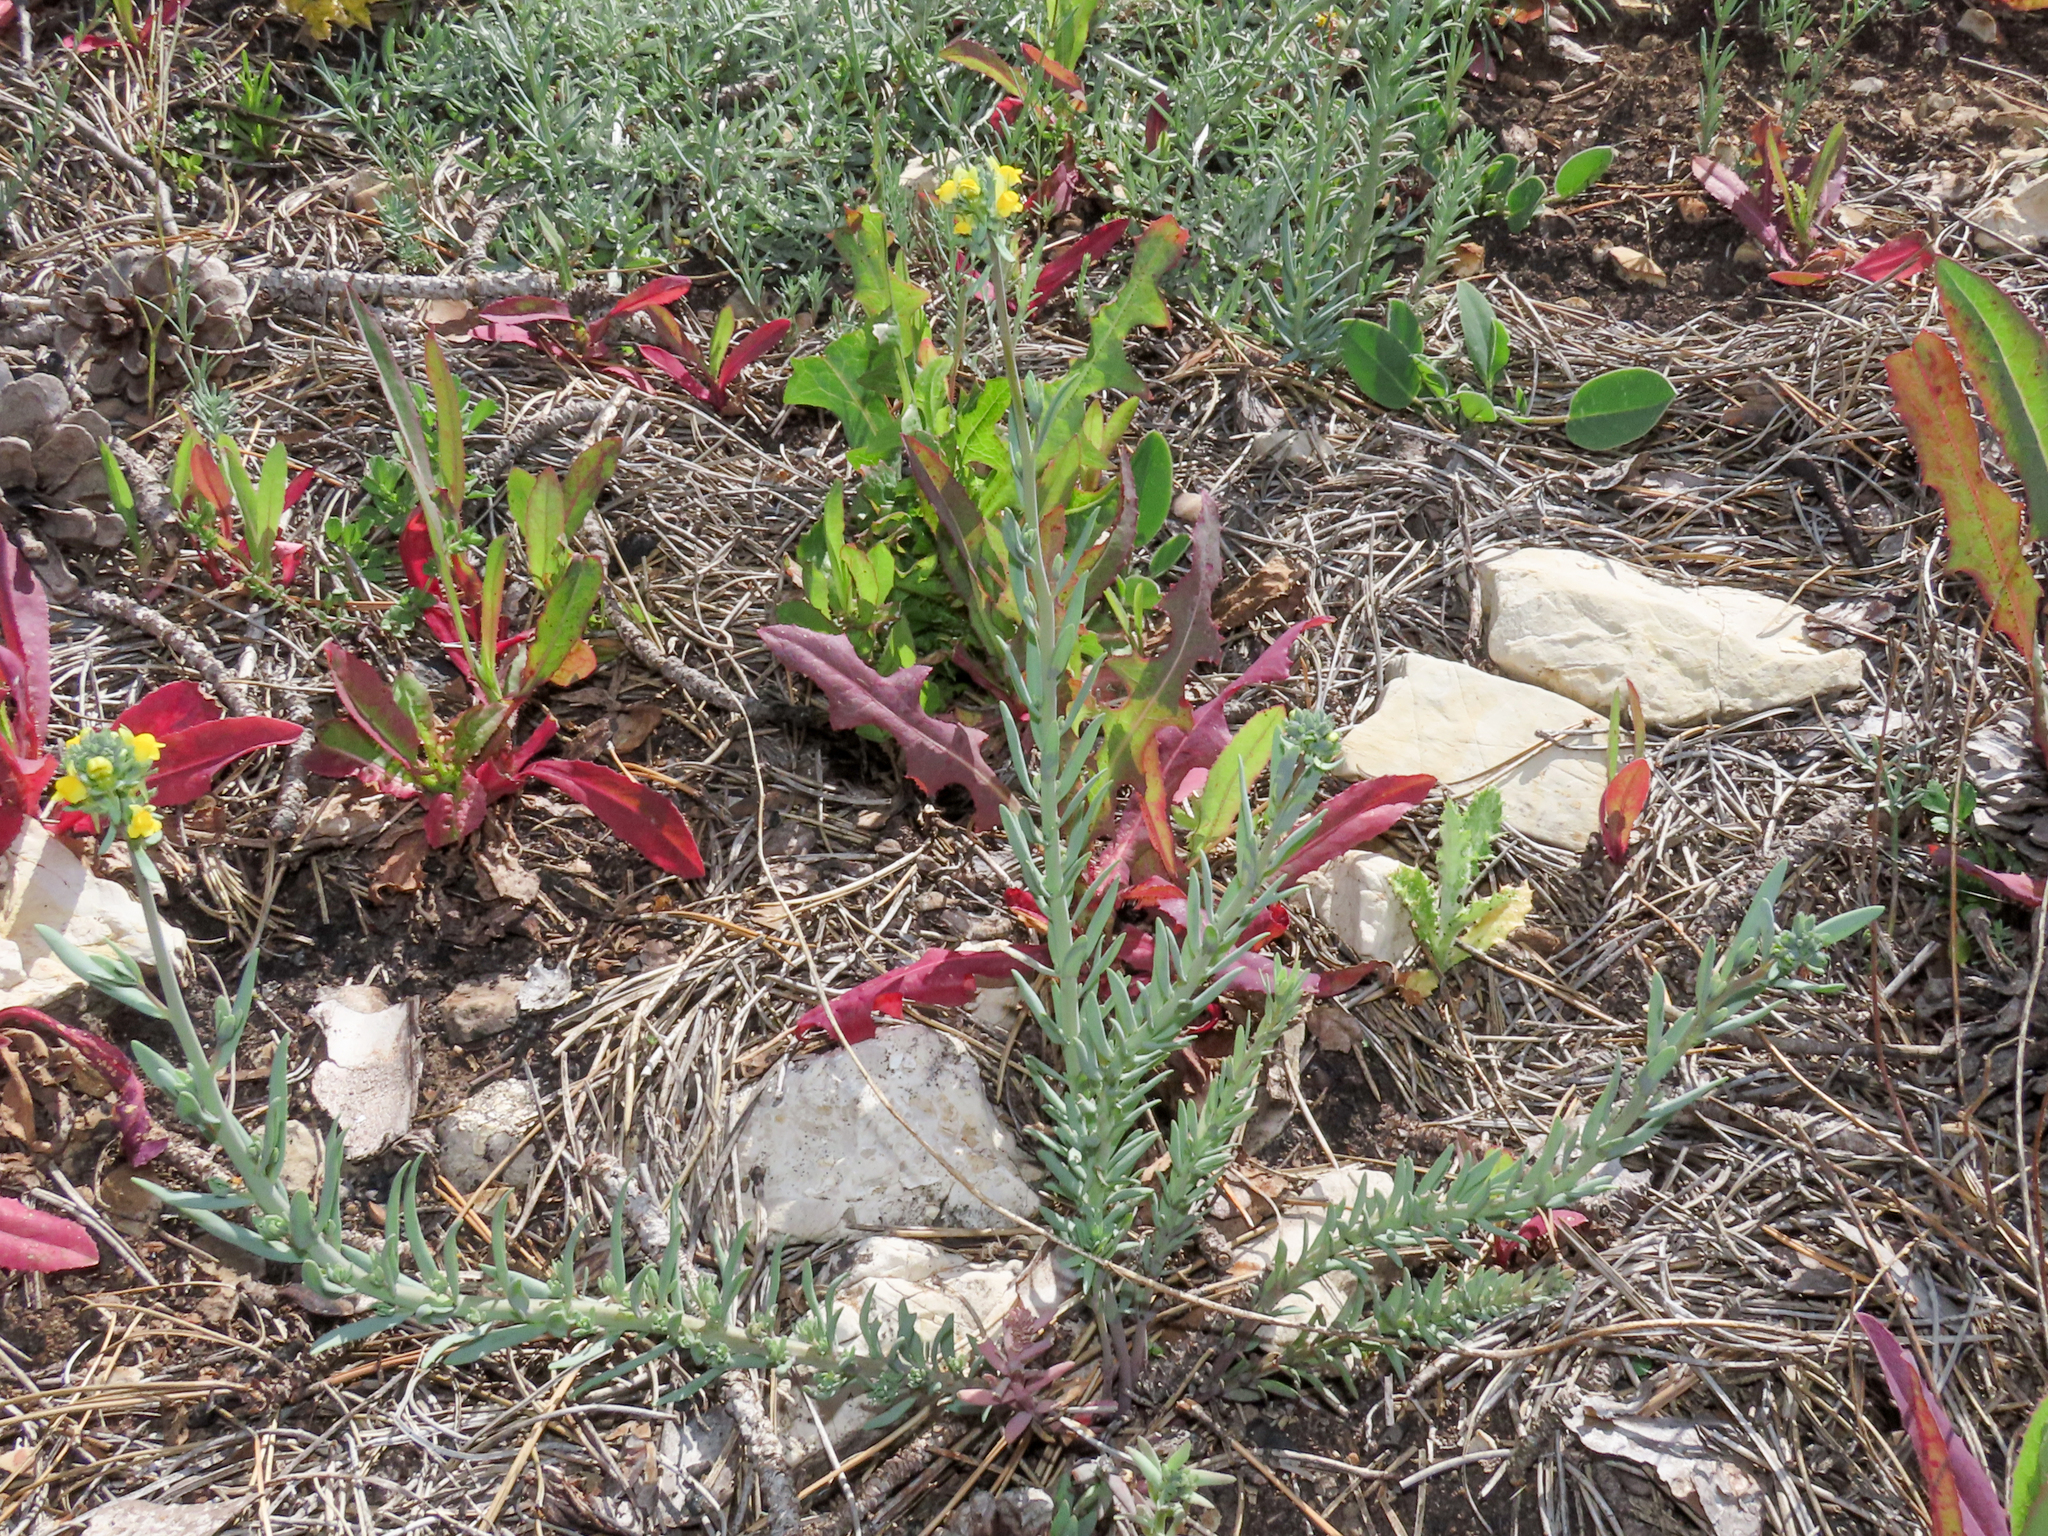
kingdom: Plantae
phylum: Tracheophyta
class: Magnoliopsida
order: Lamiales
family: Plantaginaceae
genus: Linaria
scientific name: Linaria simplex
